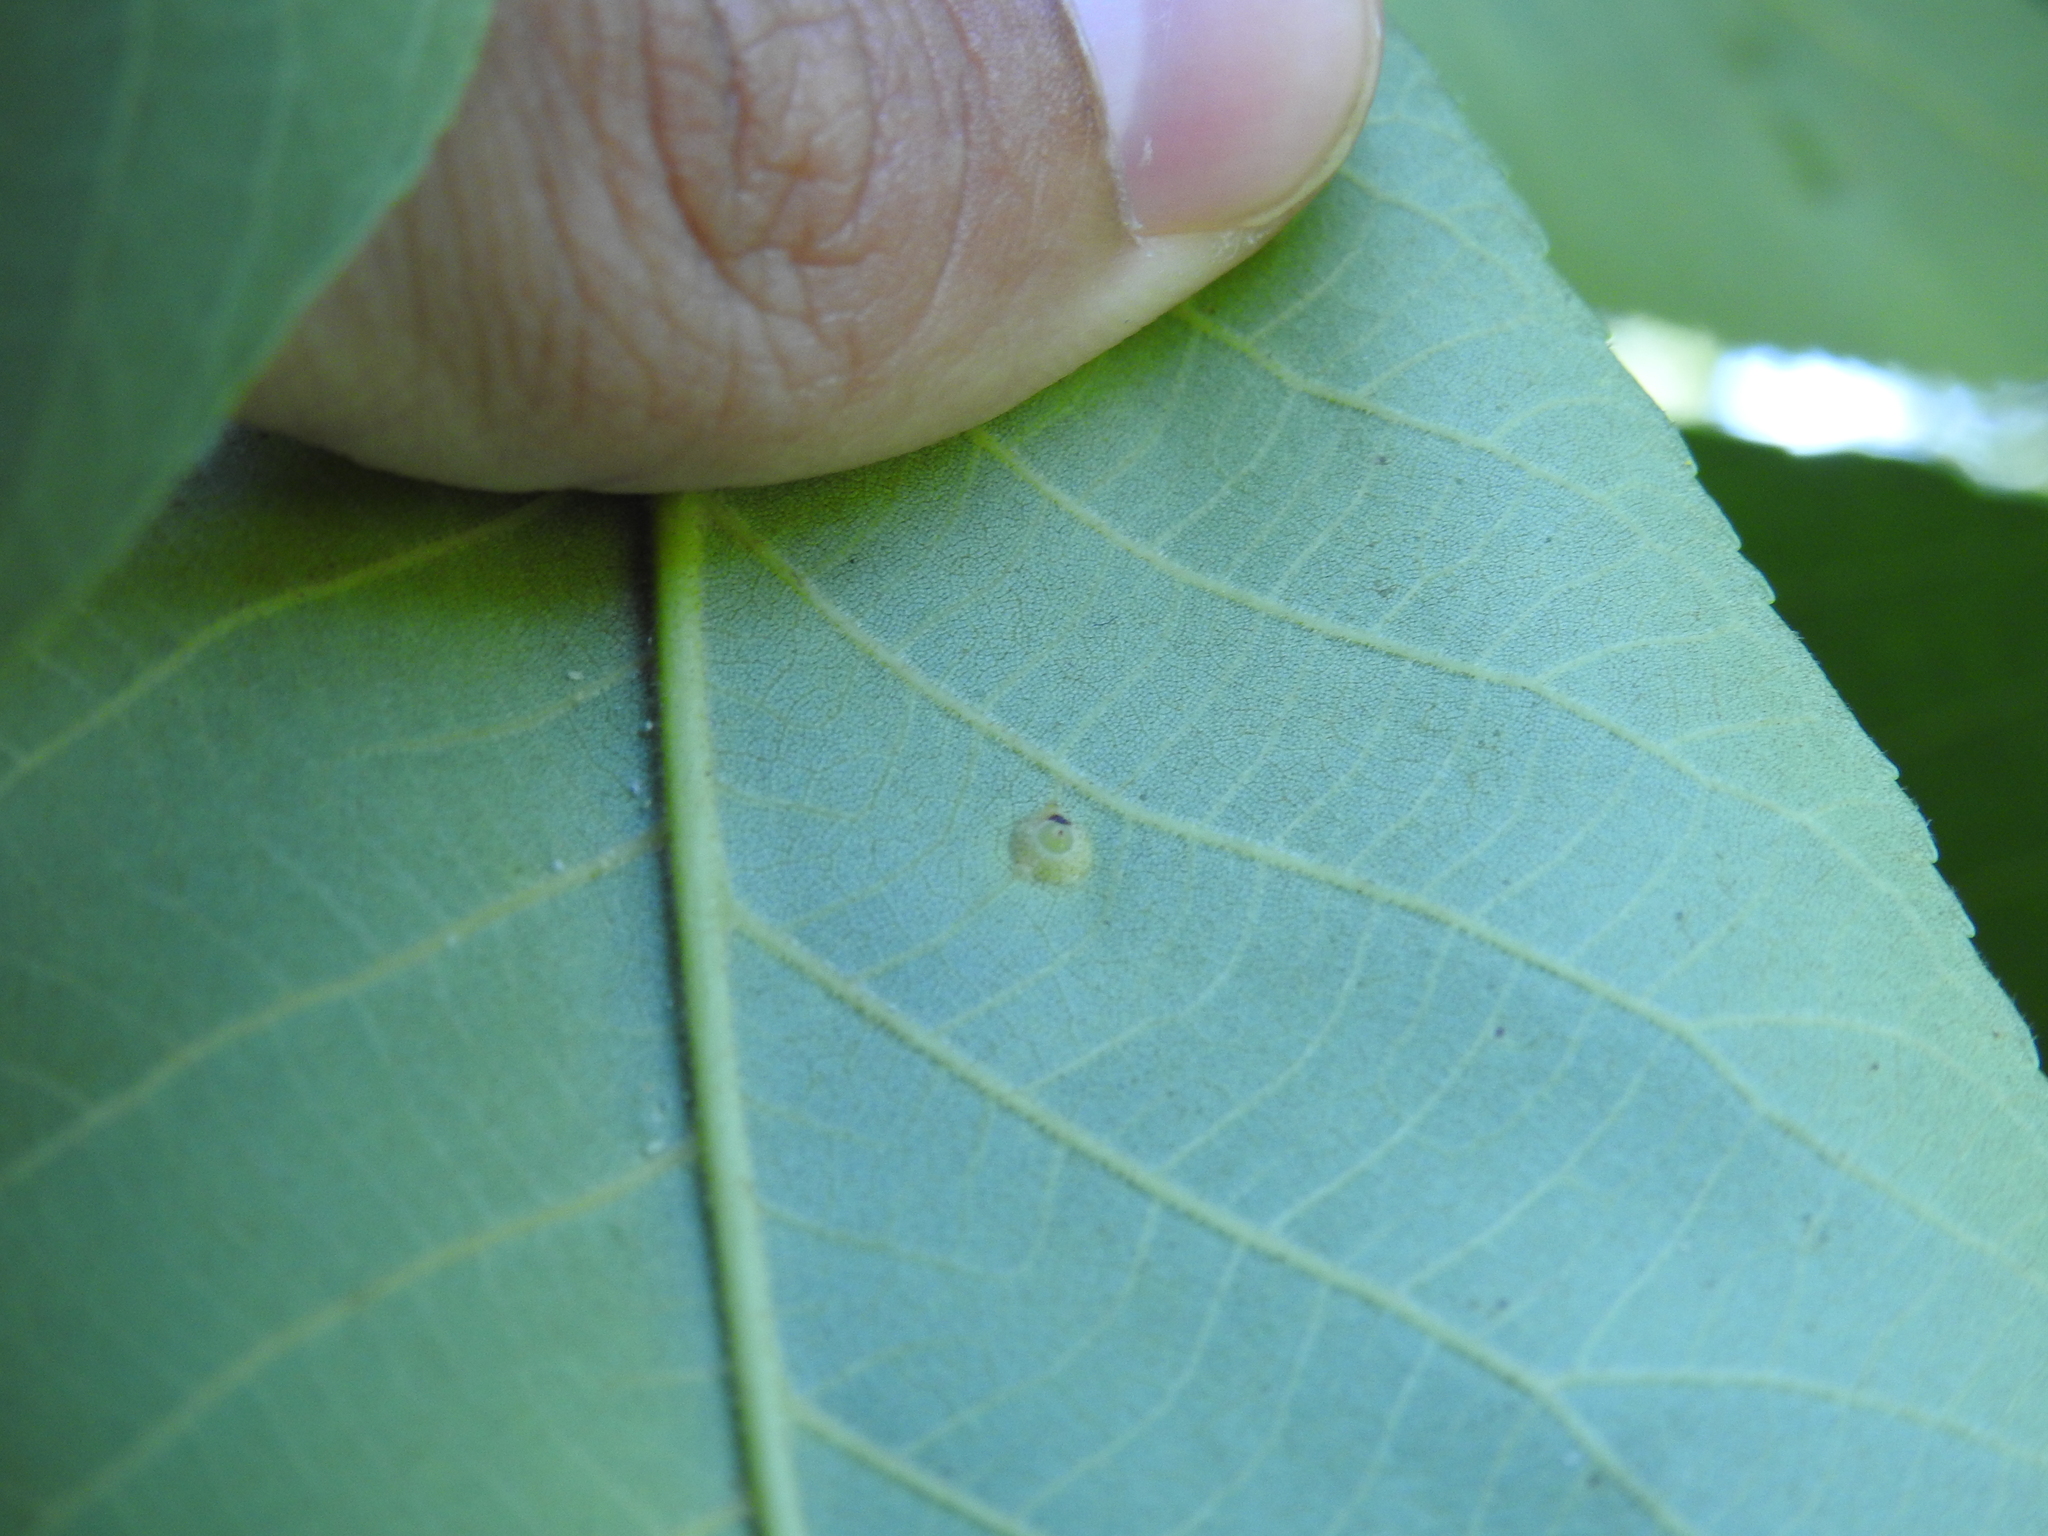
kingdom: Animalia
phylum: Arthropoda
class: Insecta
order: Diptera
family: Cecidomyiidae
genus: Caryomyia
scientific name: Caryomyia tubicola
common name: Hickory bullet gall midge
